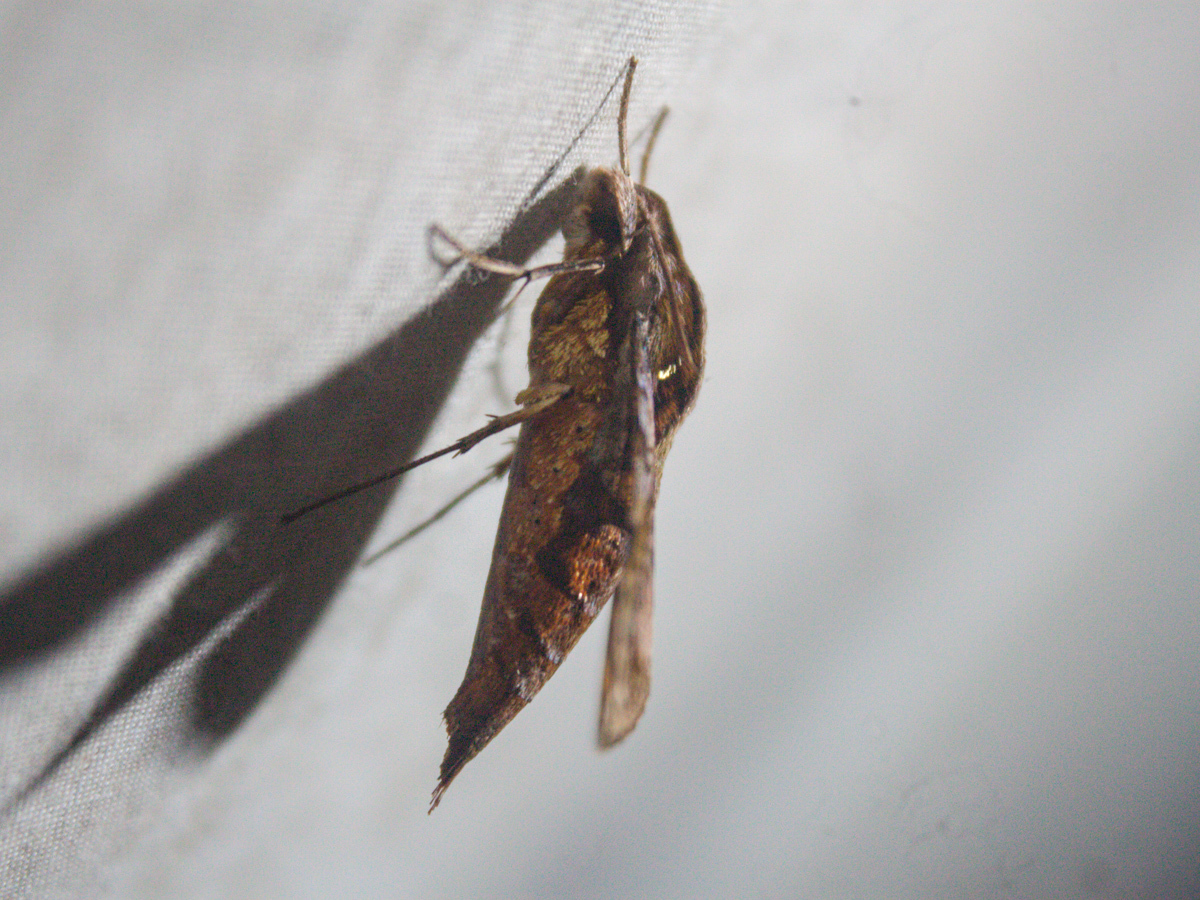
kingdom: Animalia
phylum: Arthropoda
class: Insecta
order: Lepidoptera
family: Sphingidae
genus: Eupanacra
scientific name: Eupanacra mydon
